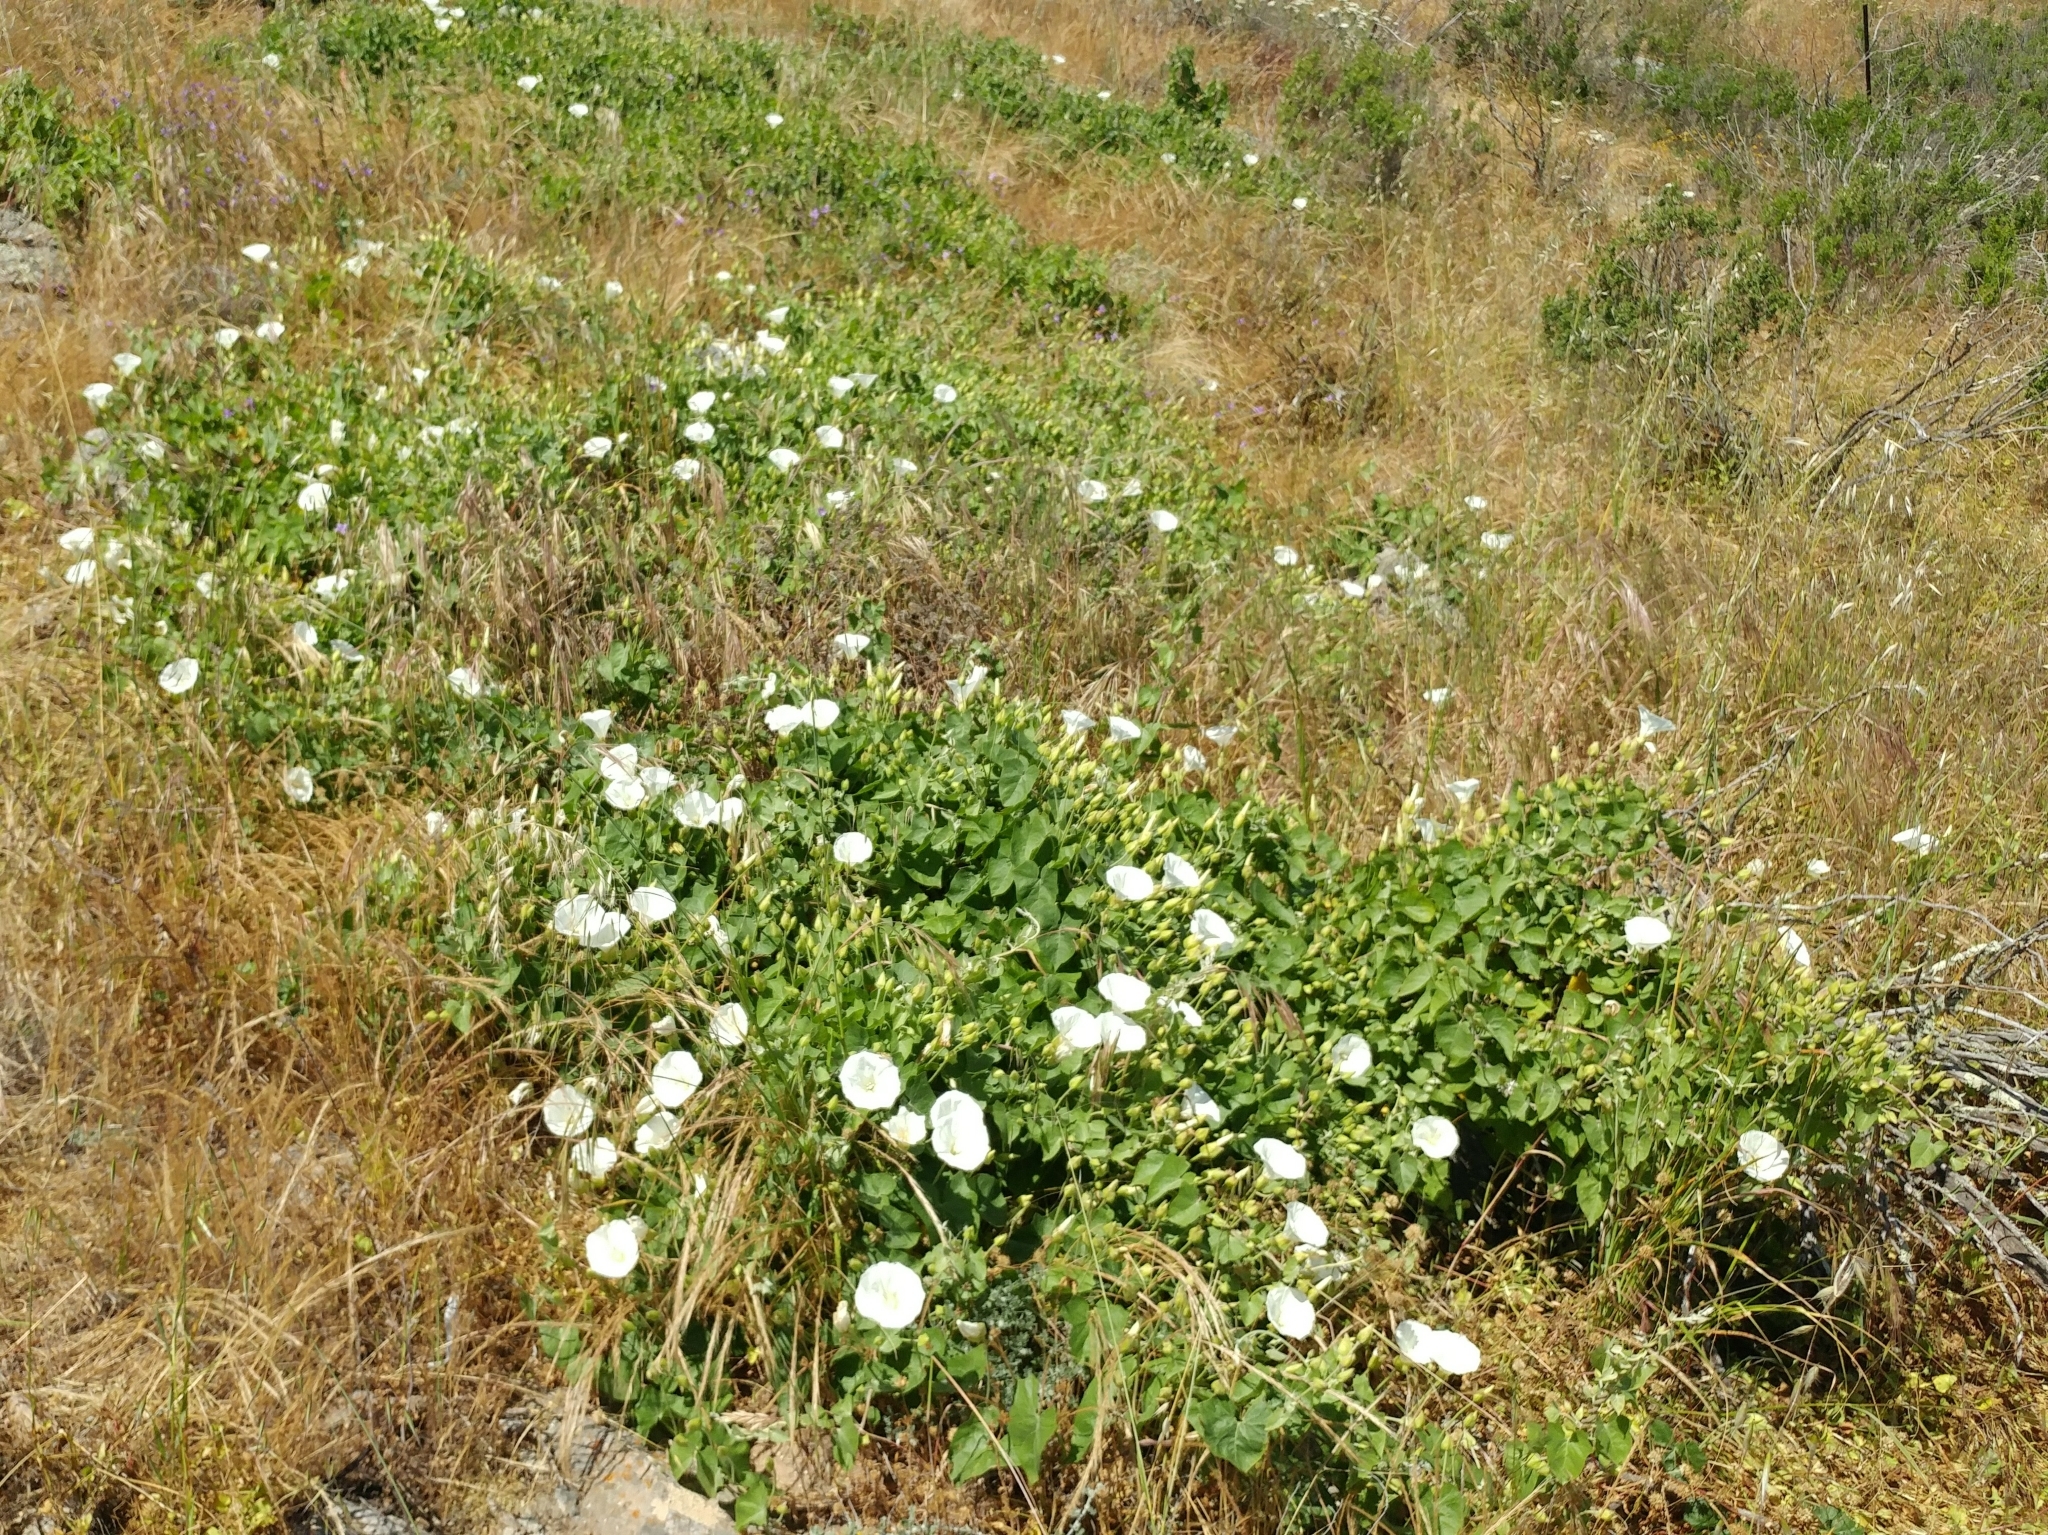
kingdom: Plantae
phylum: Tracheophyta
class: Magnoliopsida
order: Solanales
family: Convolvulaceae
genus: Calystegia
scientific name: Calystegia macrostegia
